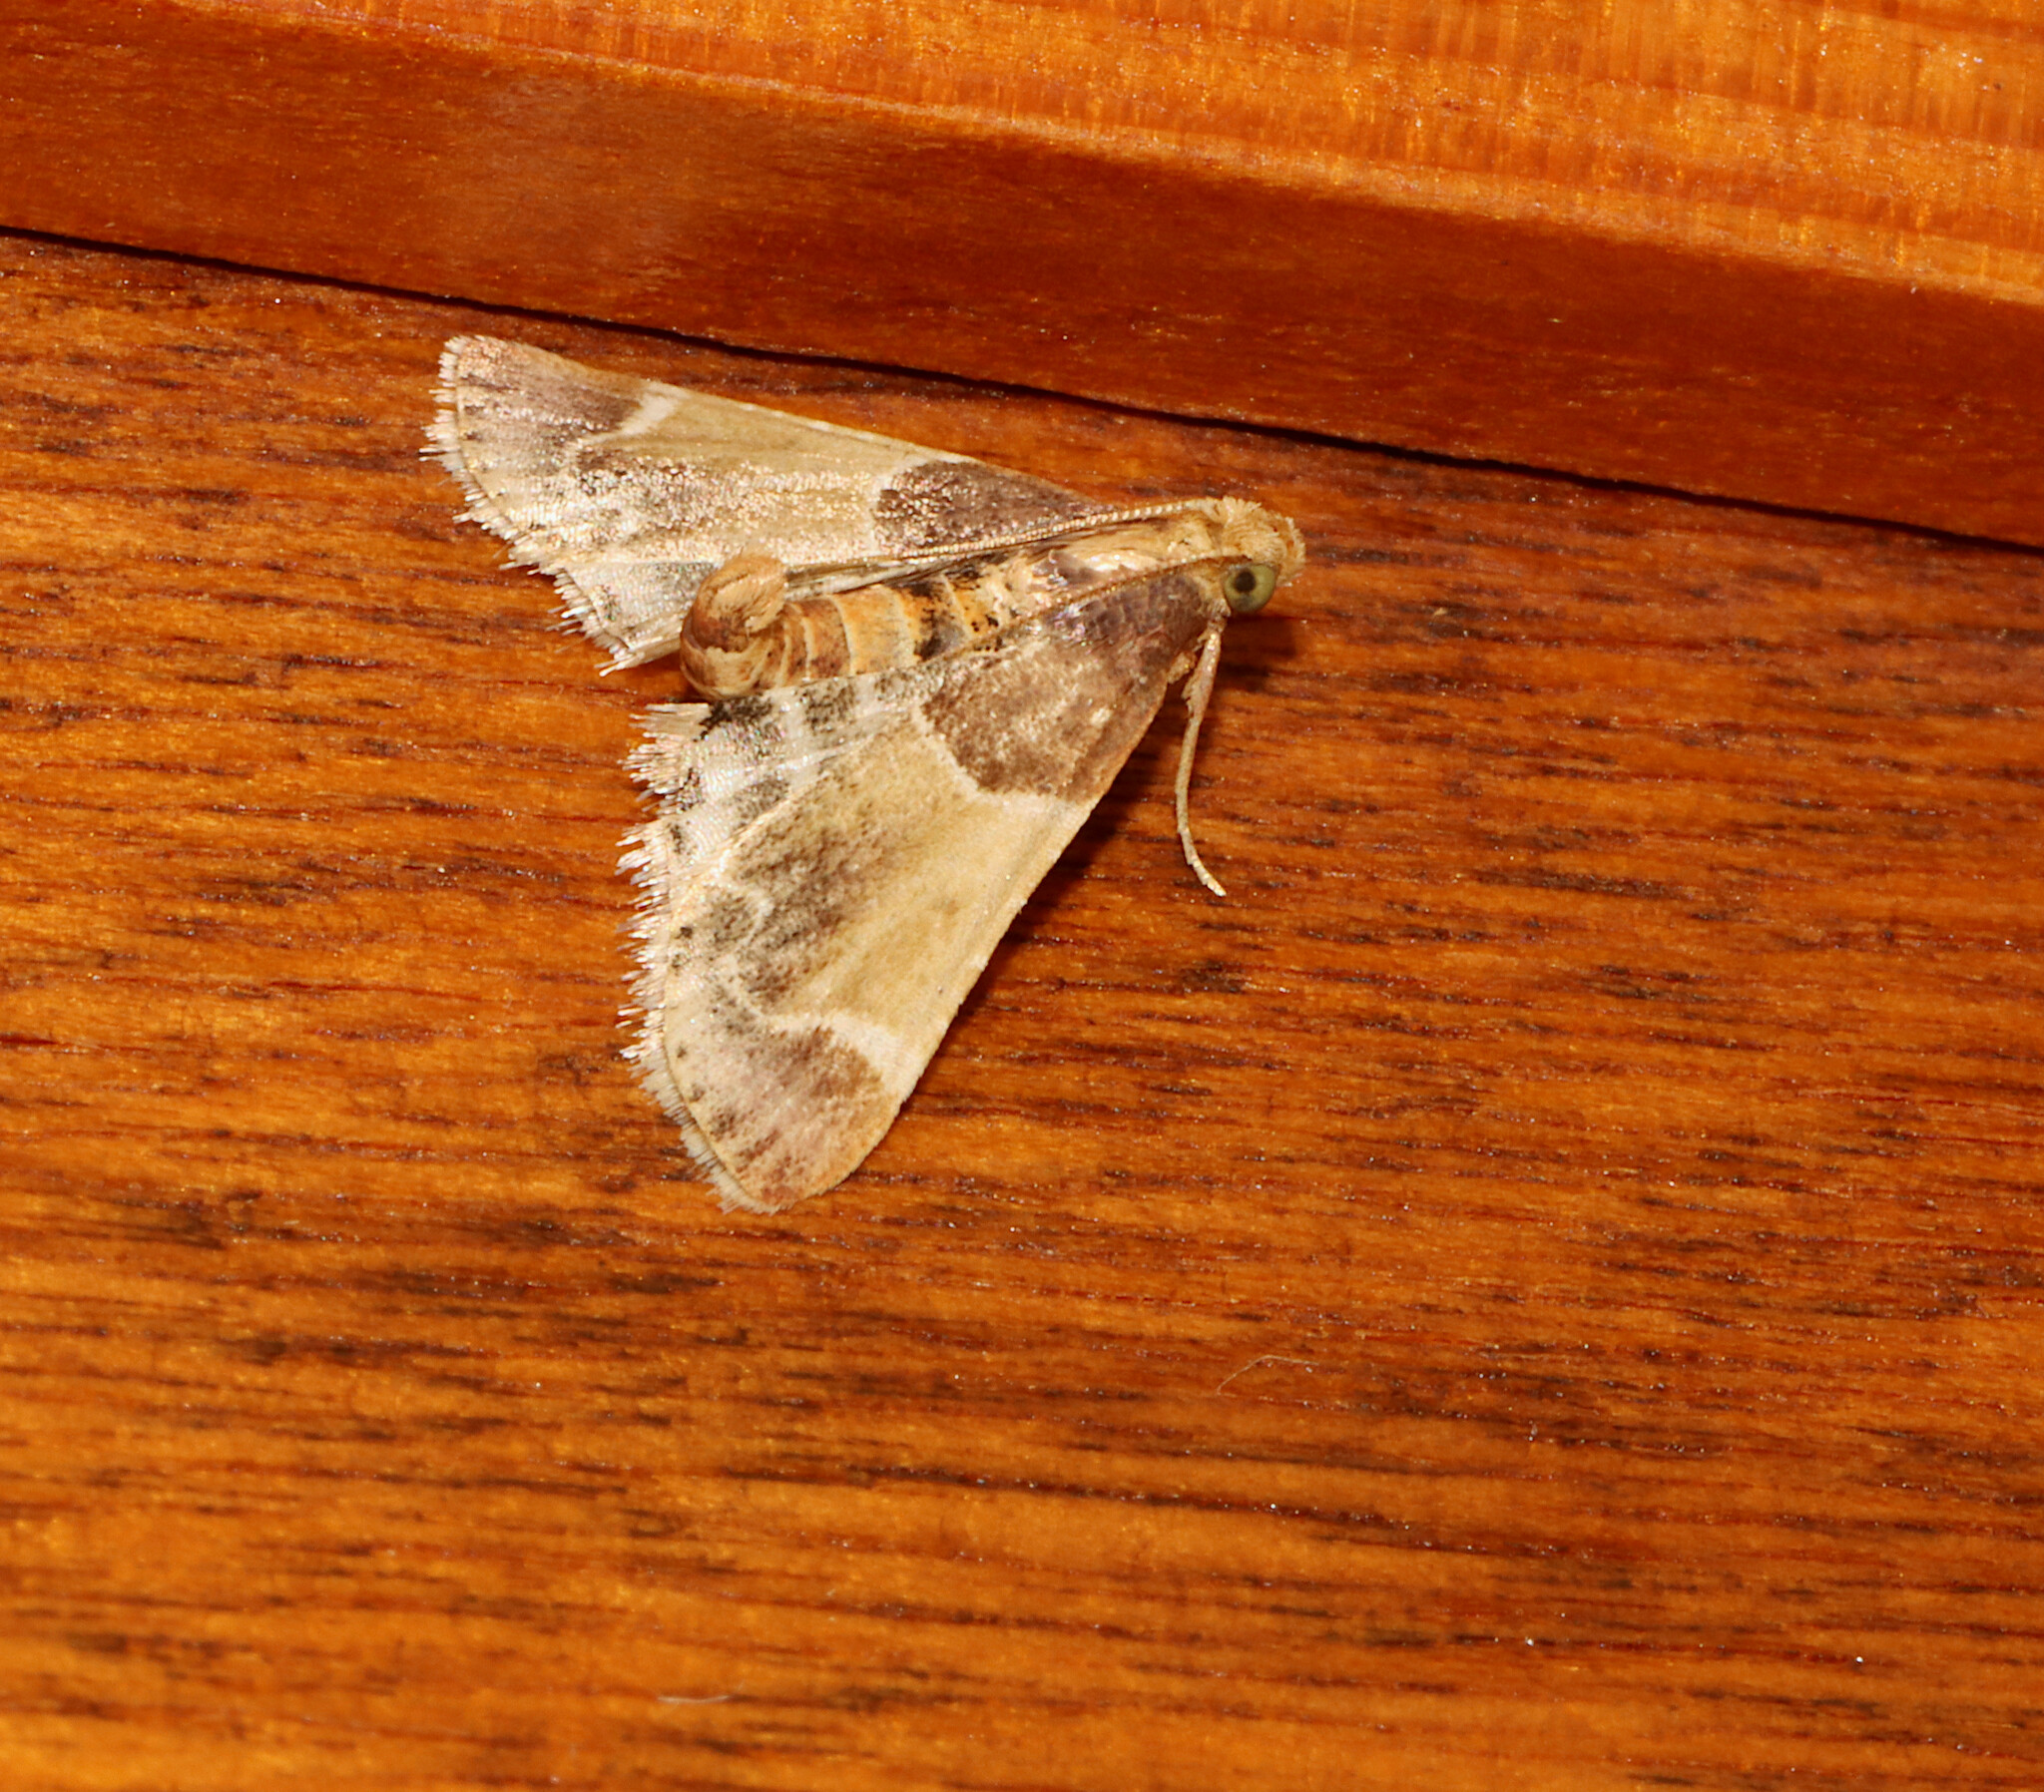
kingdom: Animalia
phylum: Arthropoda
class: Insecta
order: Lepidoptera
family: Pyralidae
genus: Pyralis
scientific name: Pyralis farinalis
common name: Meal moth
